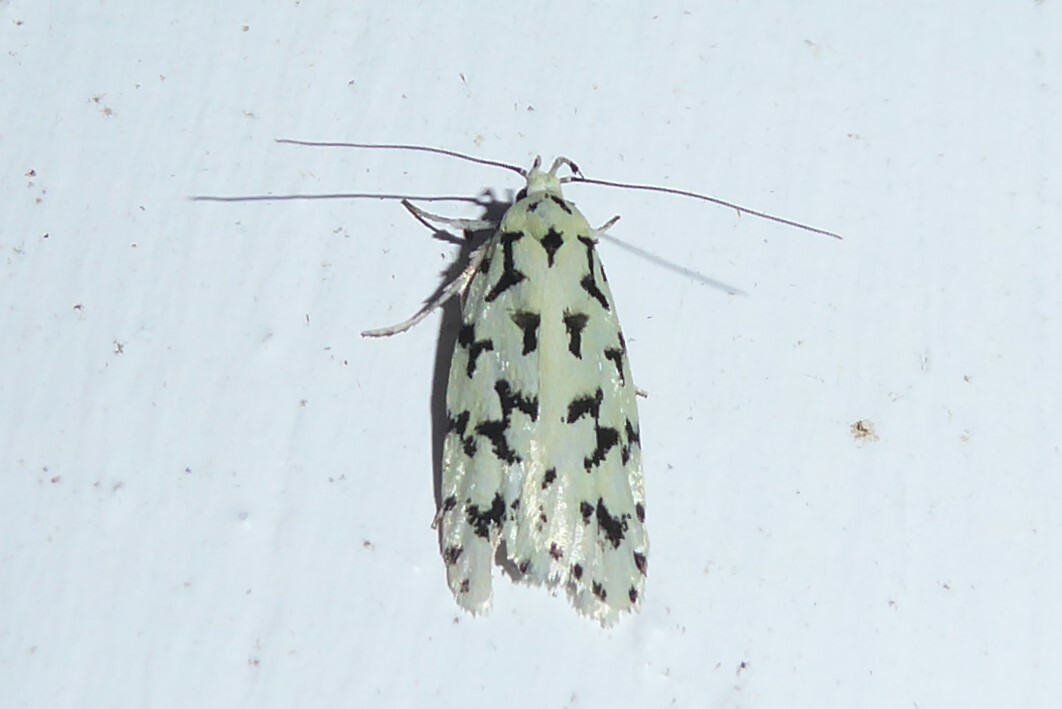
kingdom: Animalia
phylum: Arthropoda
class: Insecta
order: Lepidoptera
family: Oecophoridae
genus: Izatha
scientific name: Izatha huttoni
